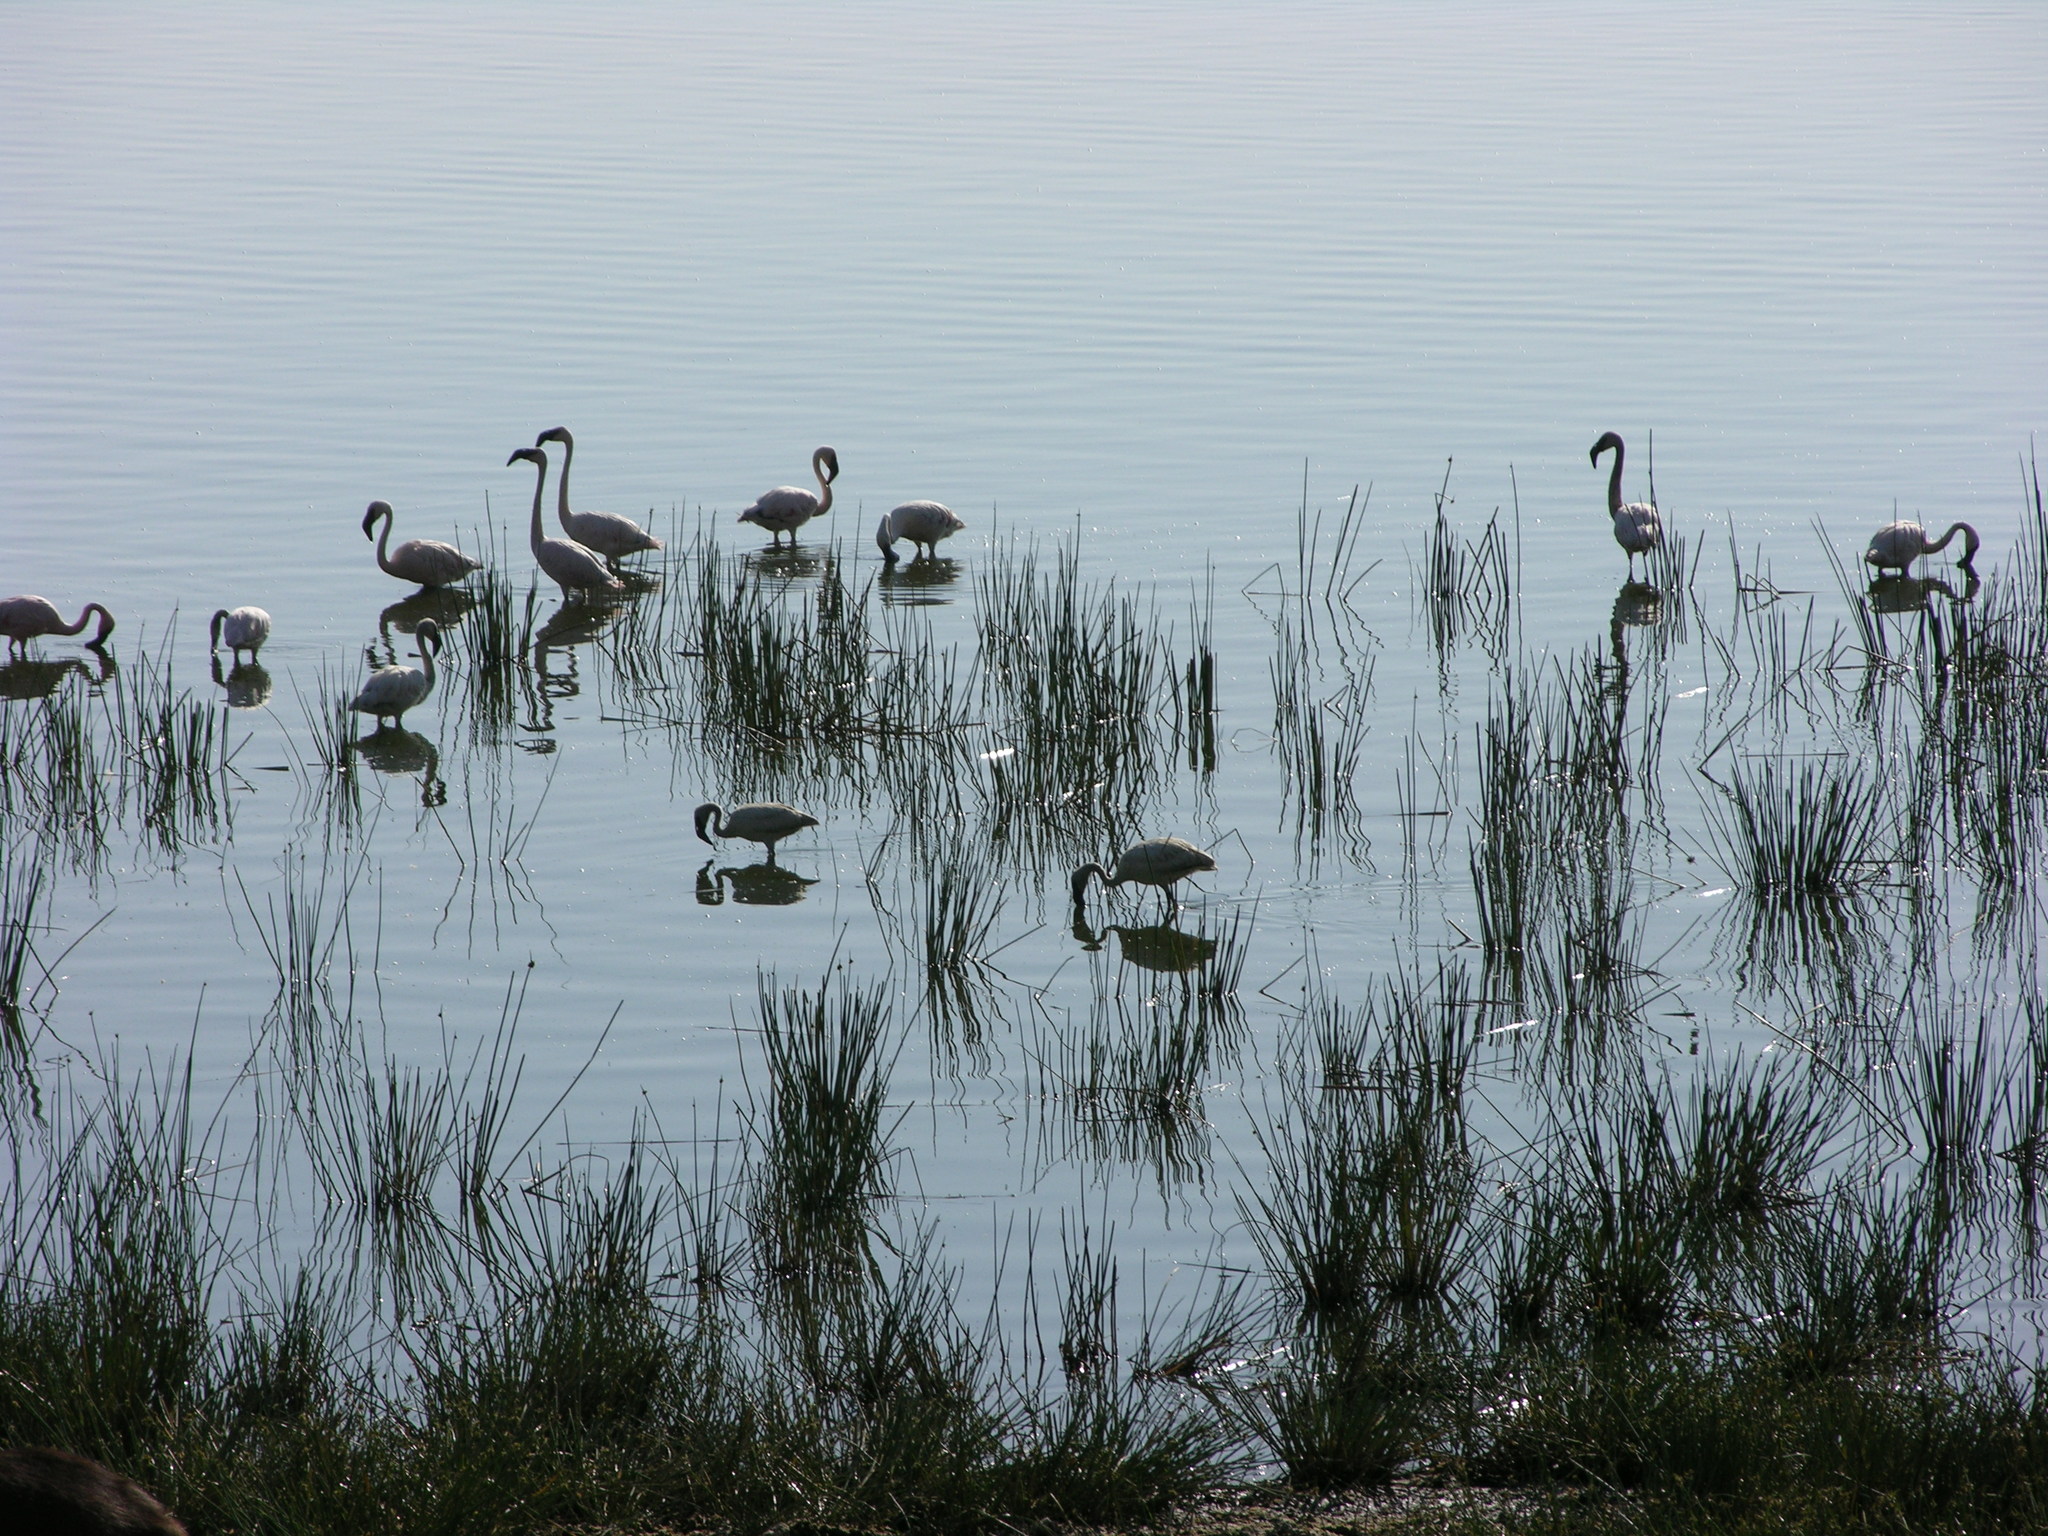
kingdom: Animalia
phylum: Chordata
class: Aves
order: Phoenicopteriformes
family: Phoenicopteridae
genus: Phoeniconaias
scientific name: Phoeniconaias minor
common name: Lesser flamingo
